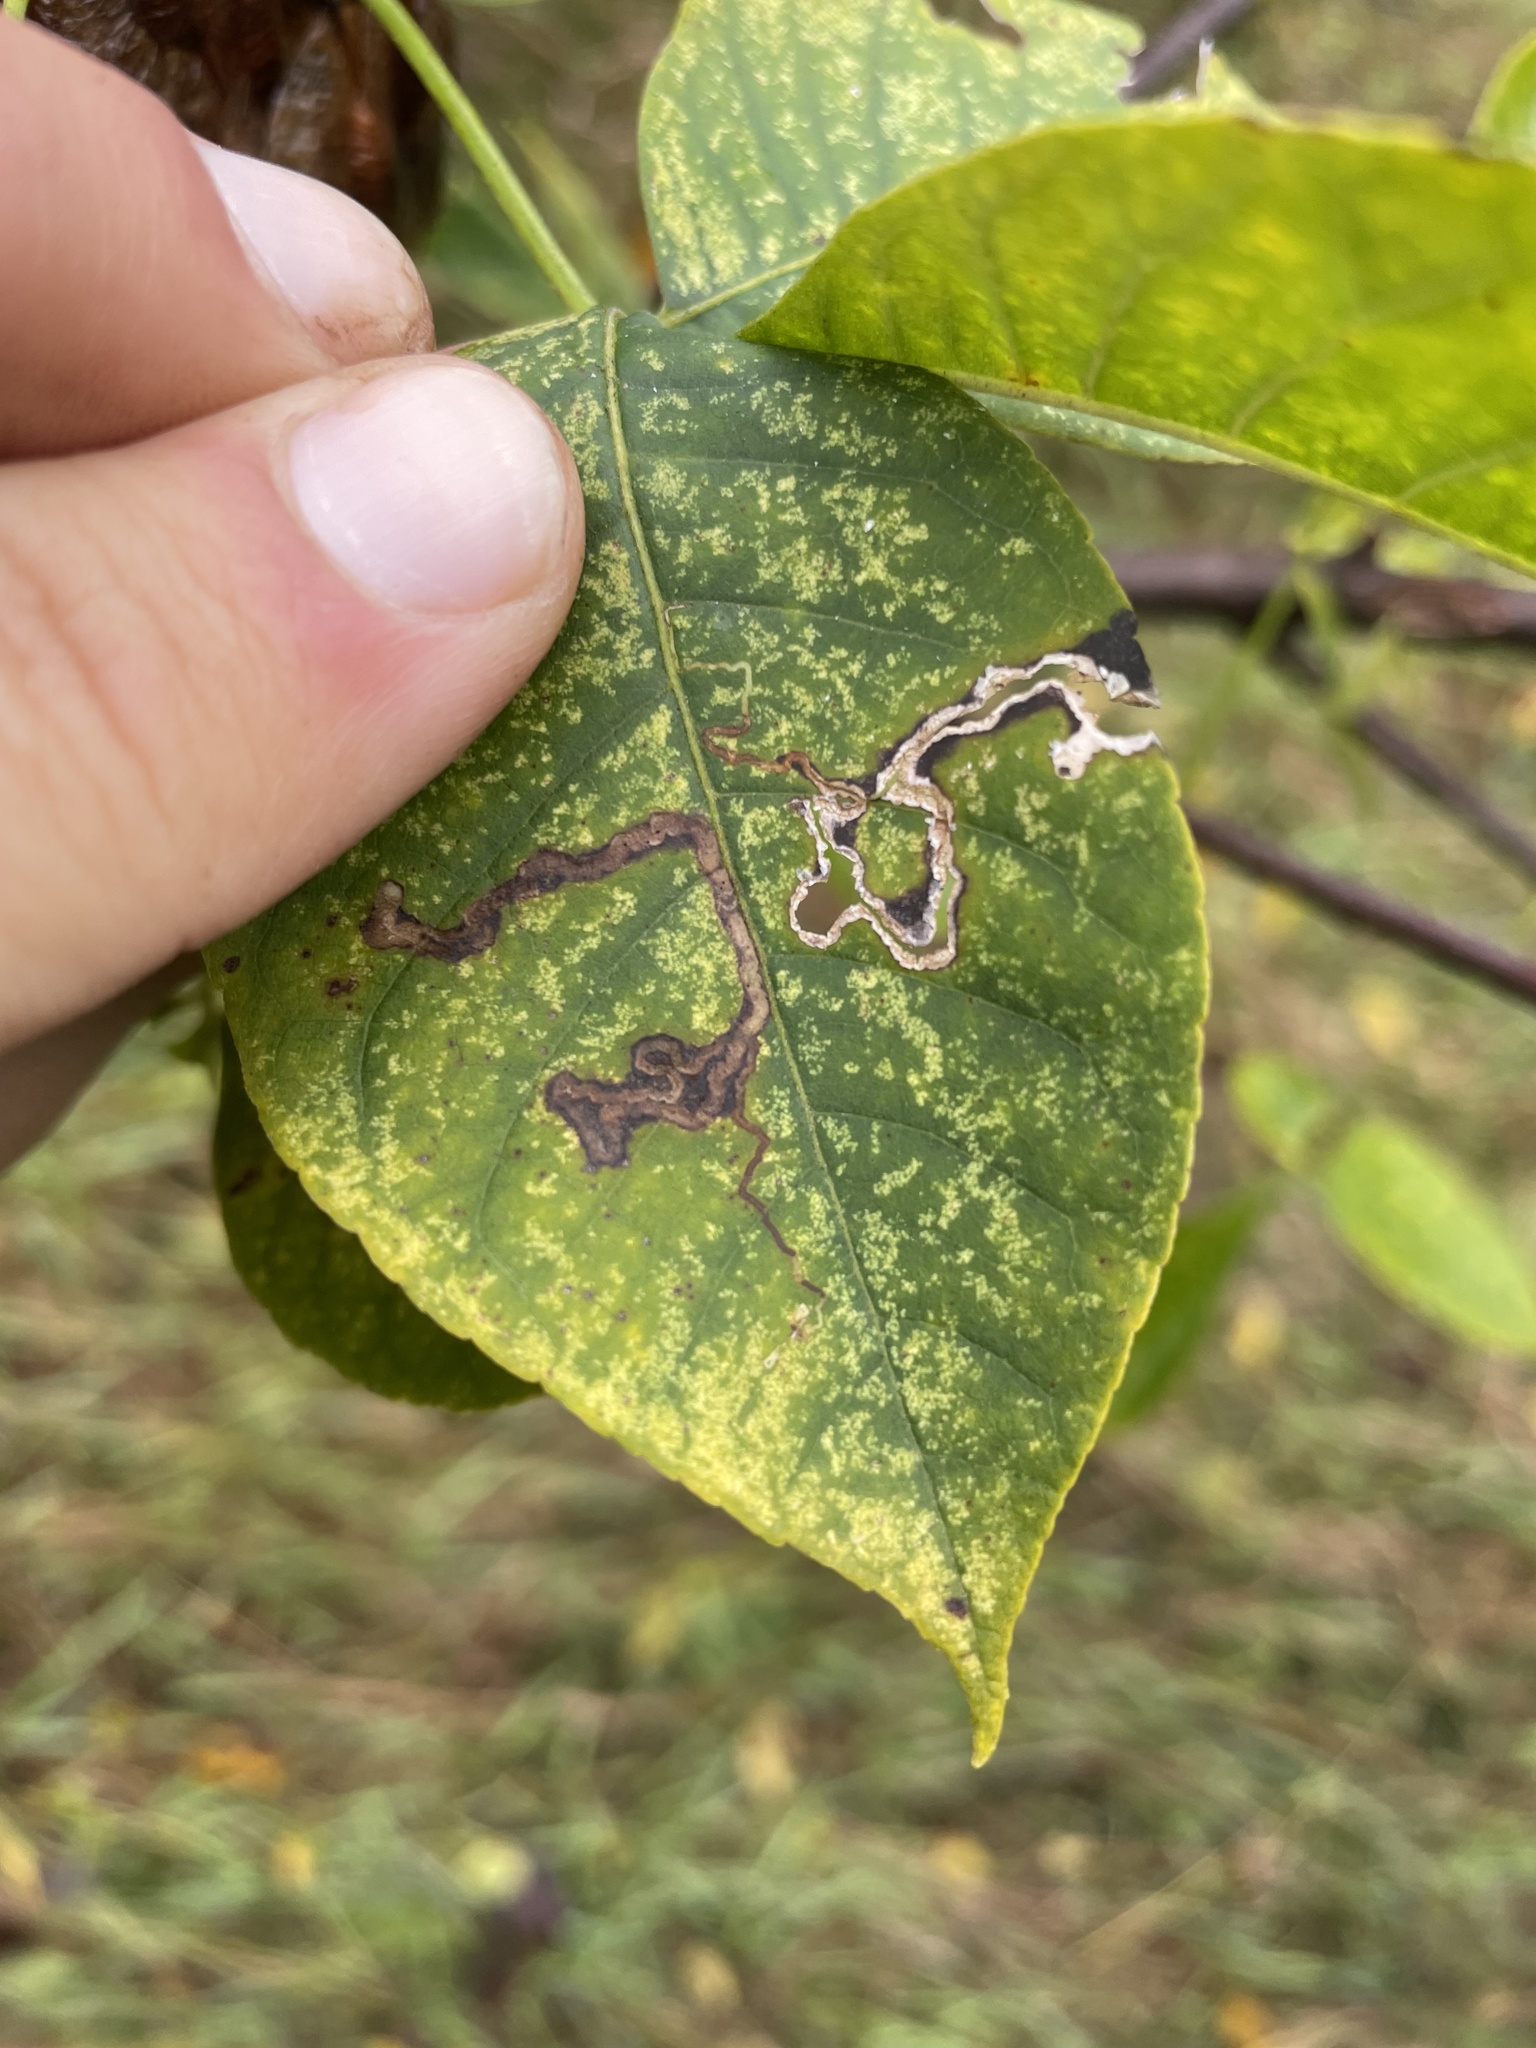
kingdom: Animalia
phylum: Arthropoda
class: Insecta
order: Lepidoptera
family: Nepticulidae
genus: Fomoria
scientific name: Fomoria pteliaeella
